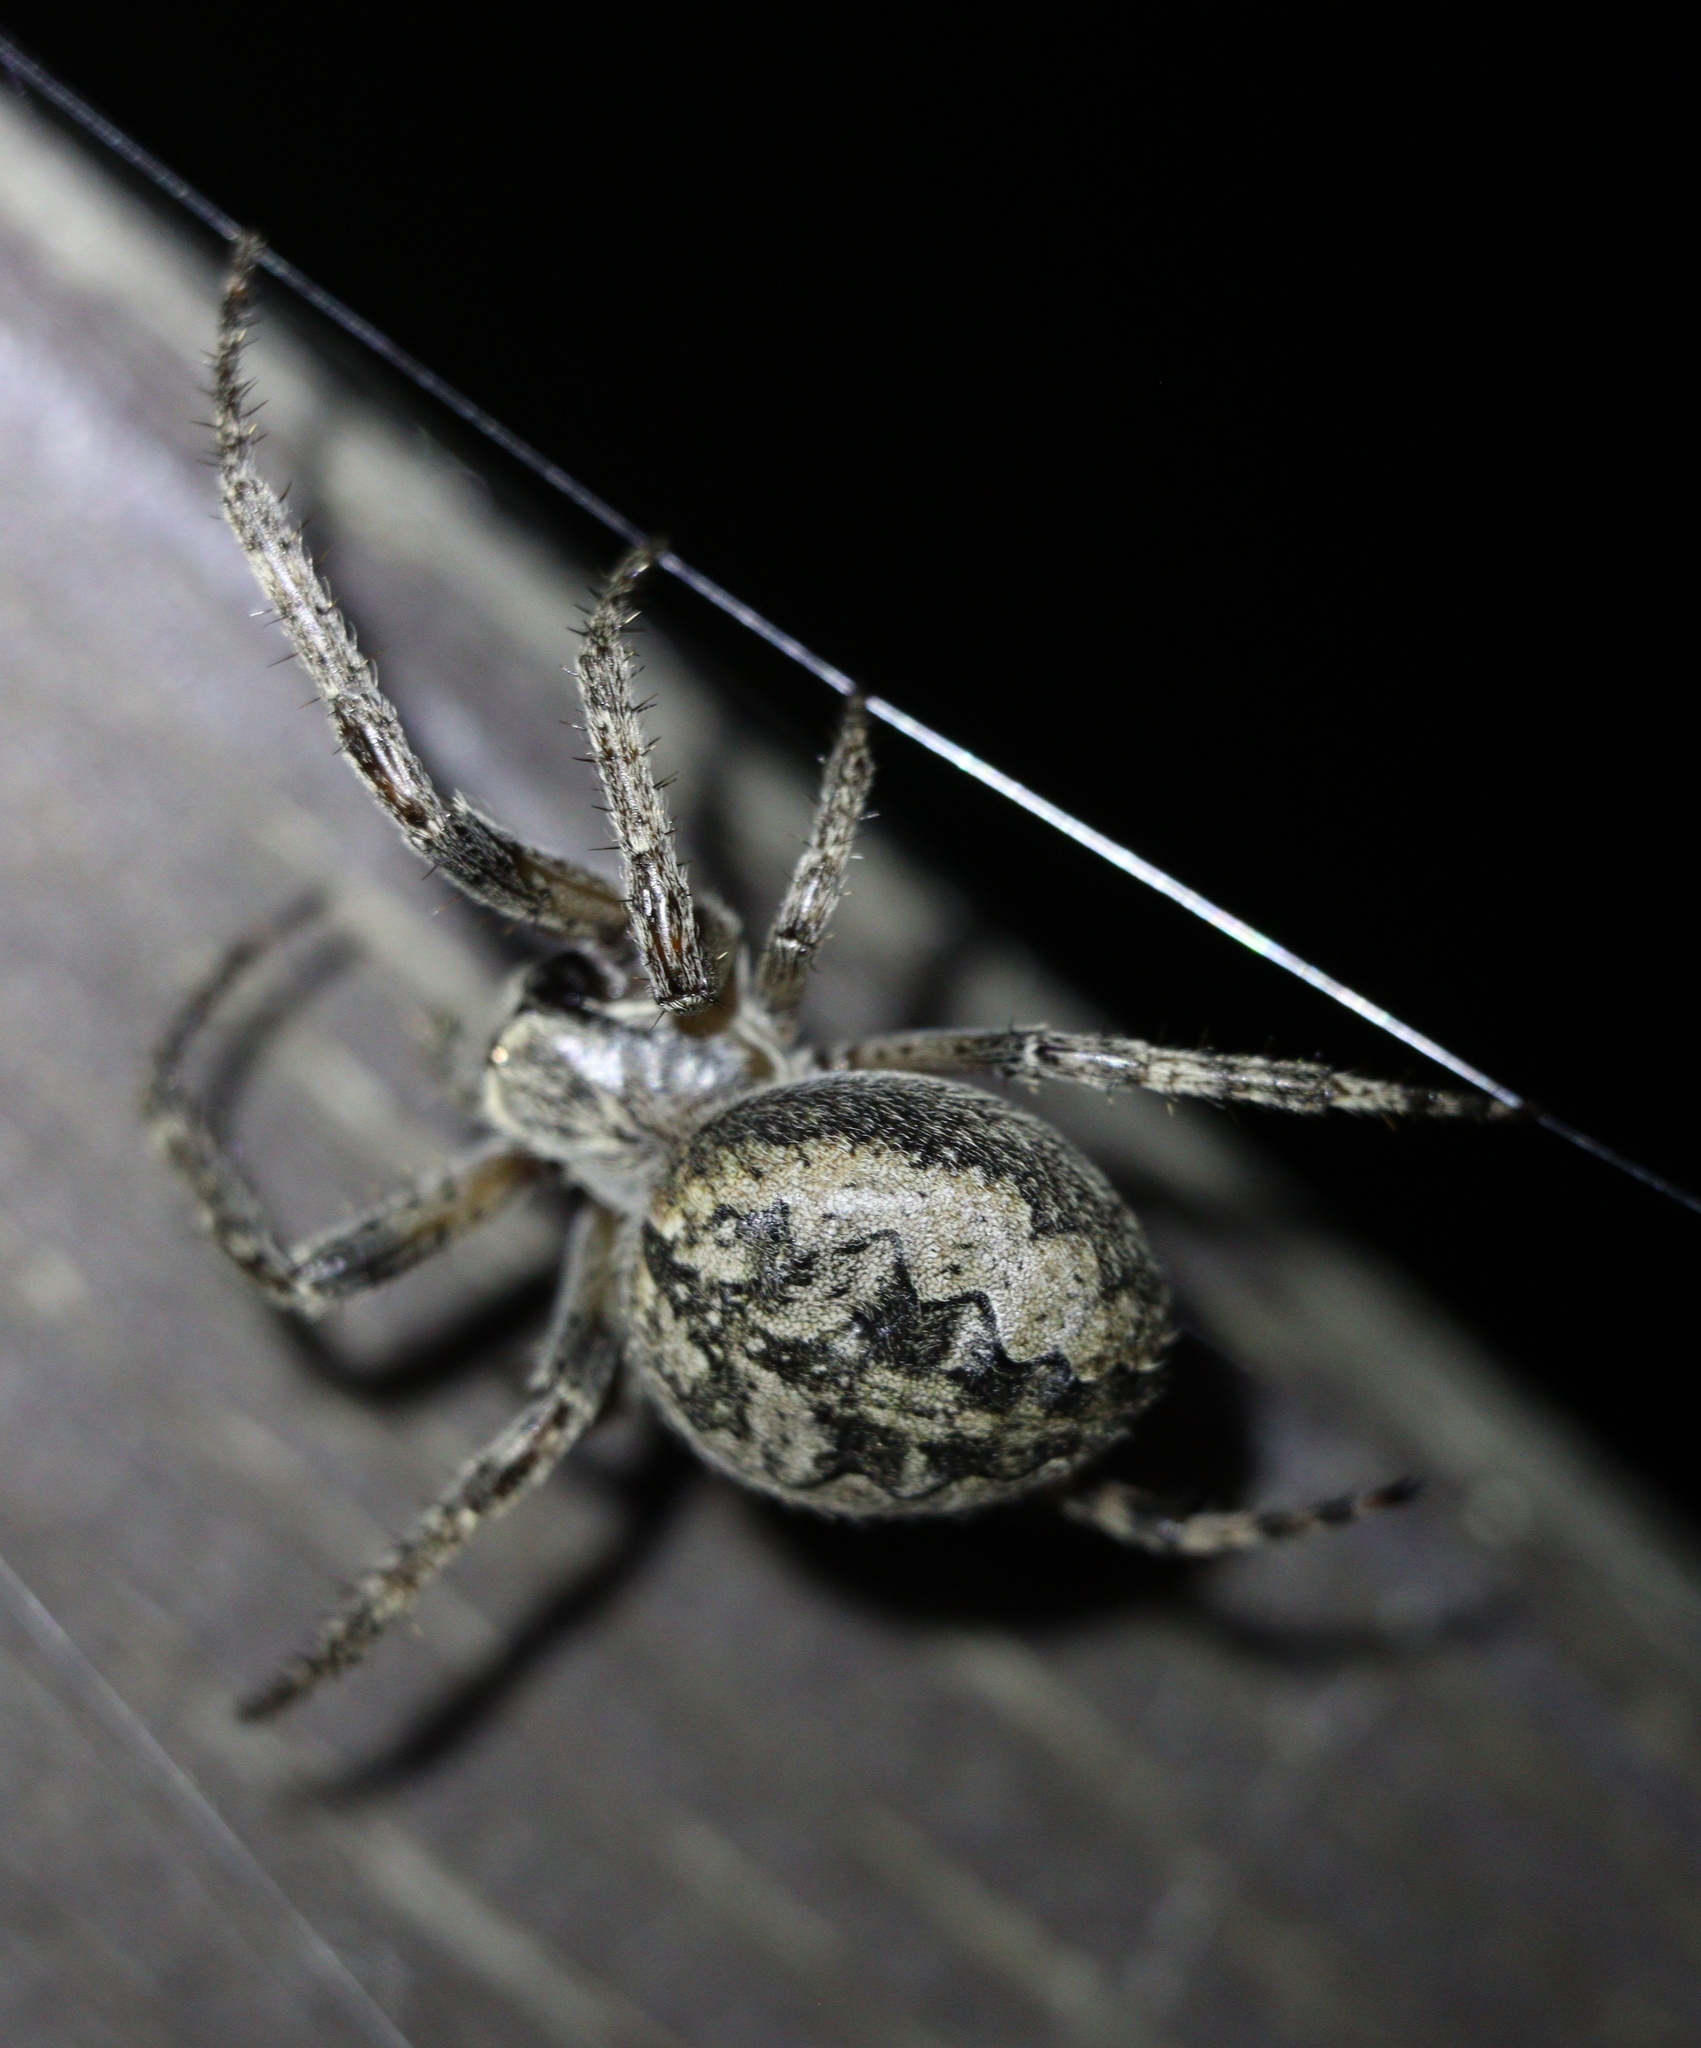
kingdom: Animalia
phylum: Arthropoda
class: Arachnida
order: Araneae
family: Araneidae
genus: Larinioides
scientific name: Larinioides ixobolus
